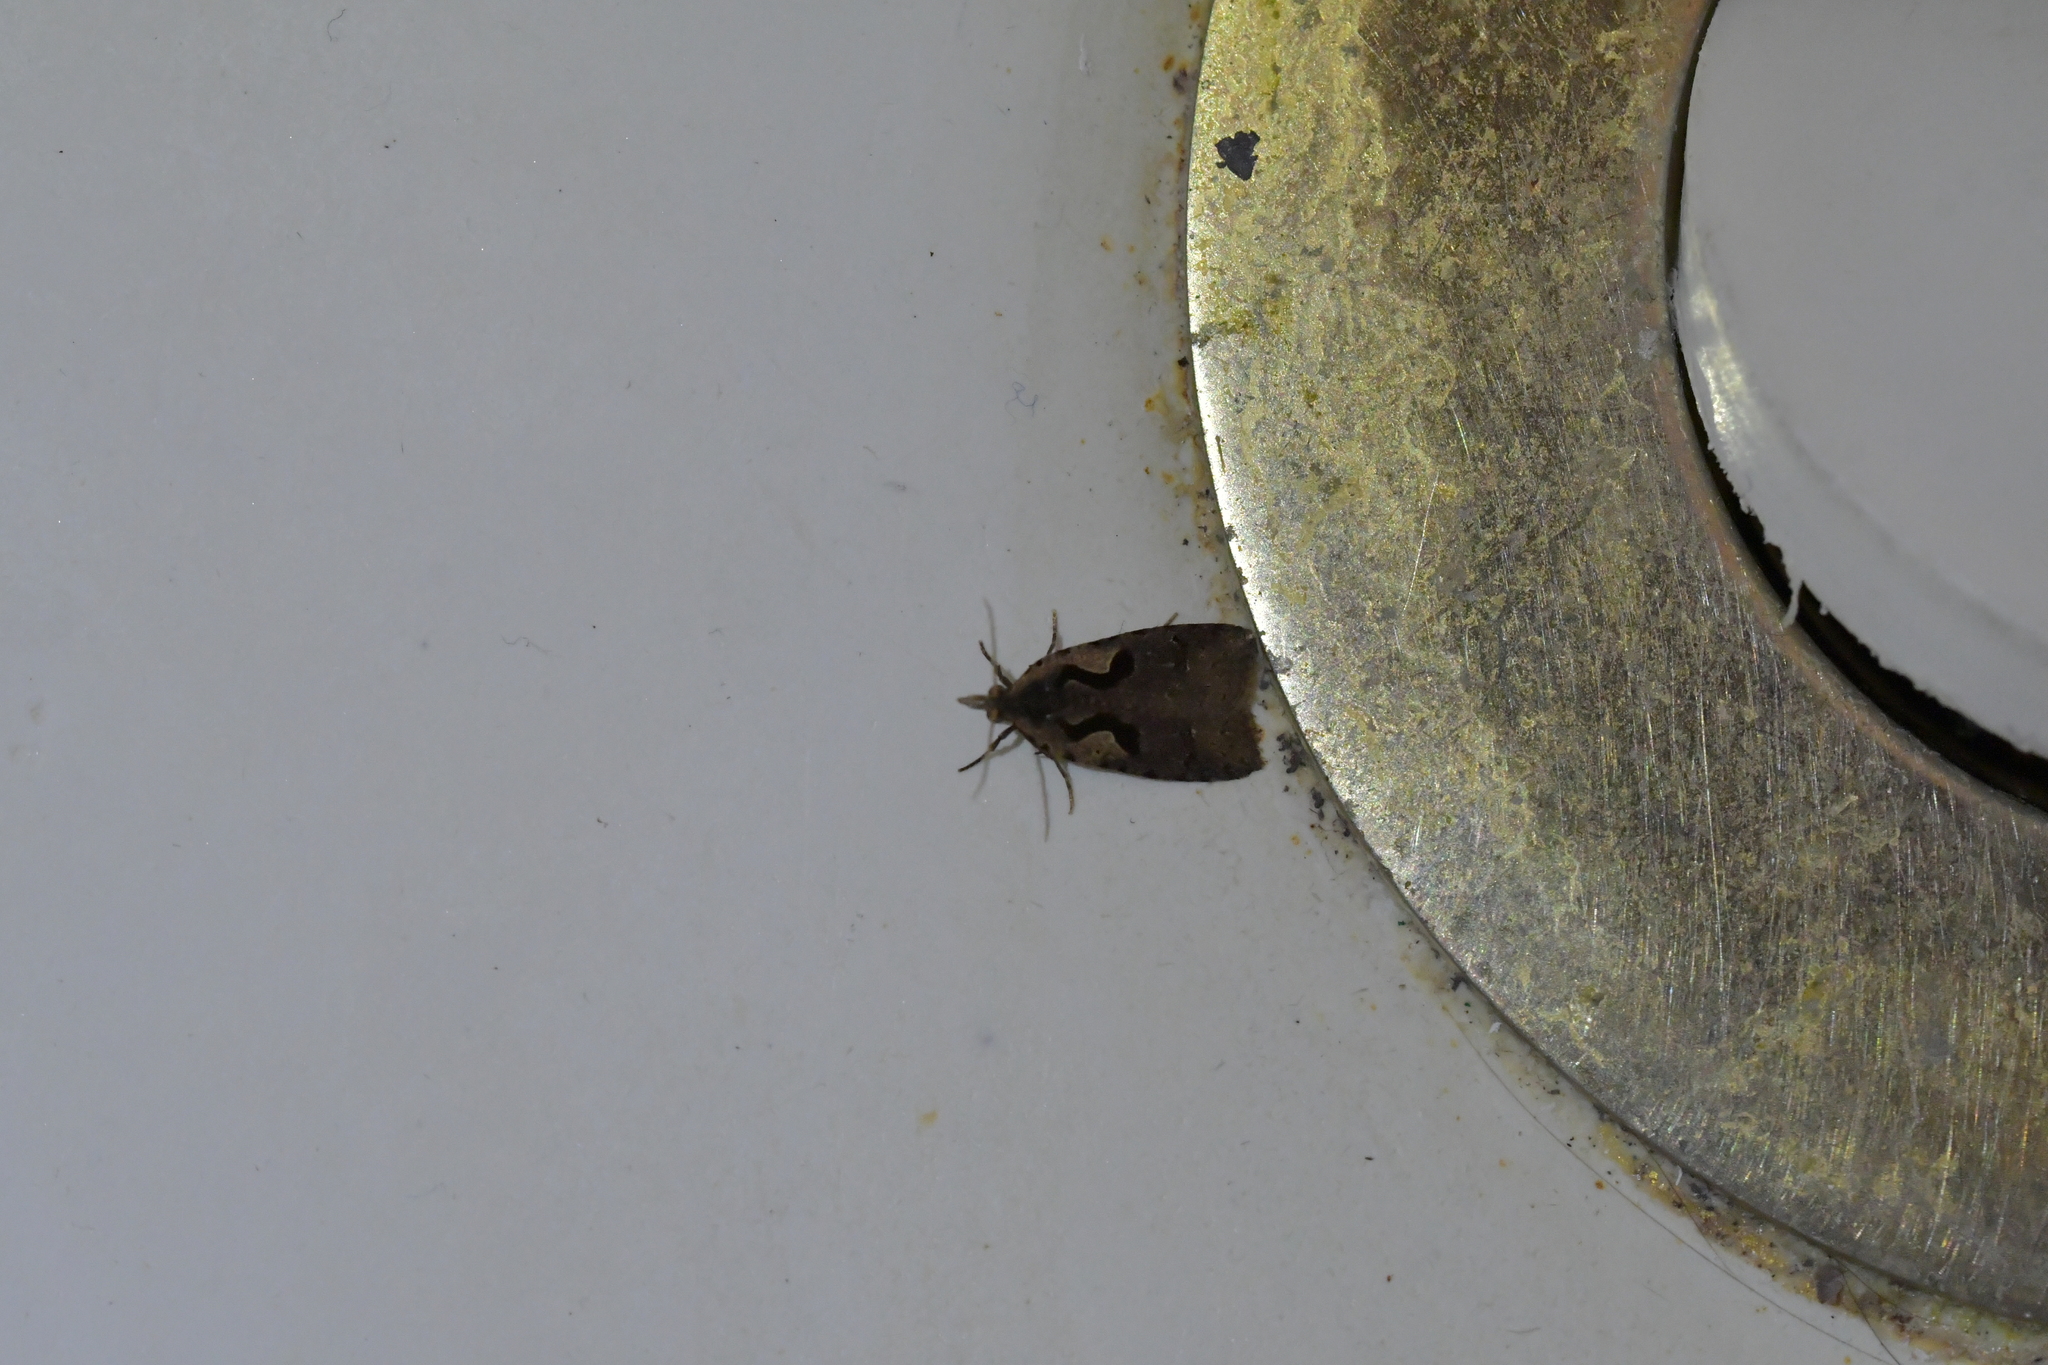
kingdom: Animalia
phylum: Arthropoda
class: Insecta
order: Lepidoptera
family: Tortricidae
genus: Cnephasia
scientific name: Cnephasia jactatana
